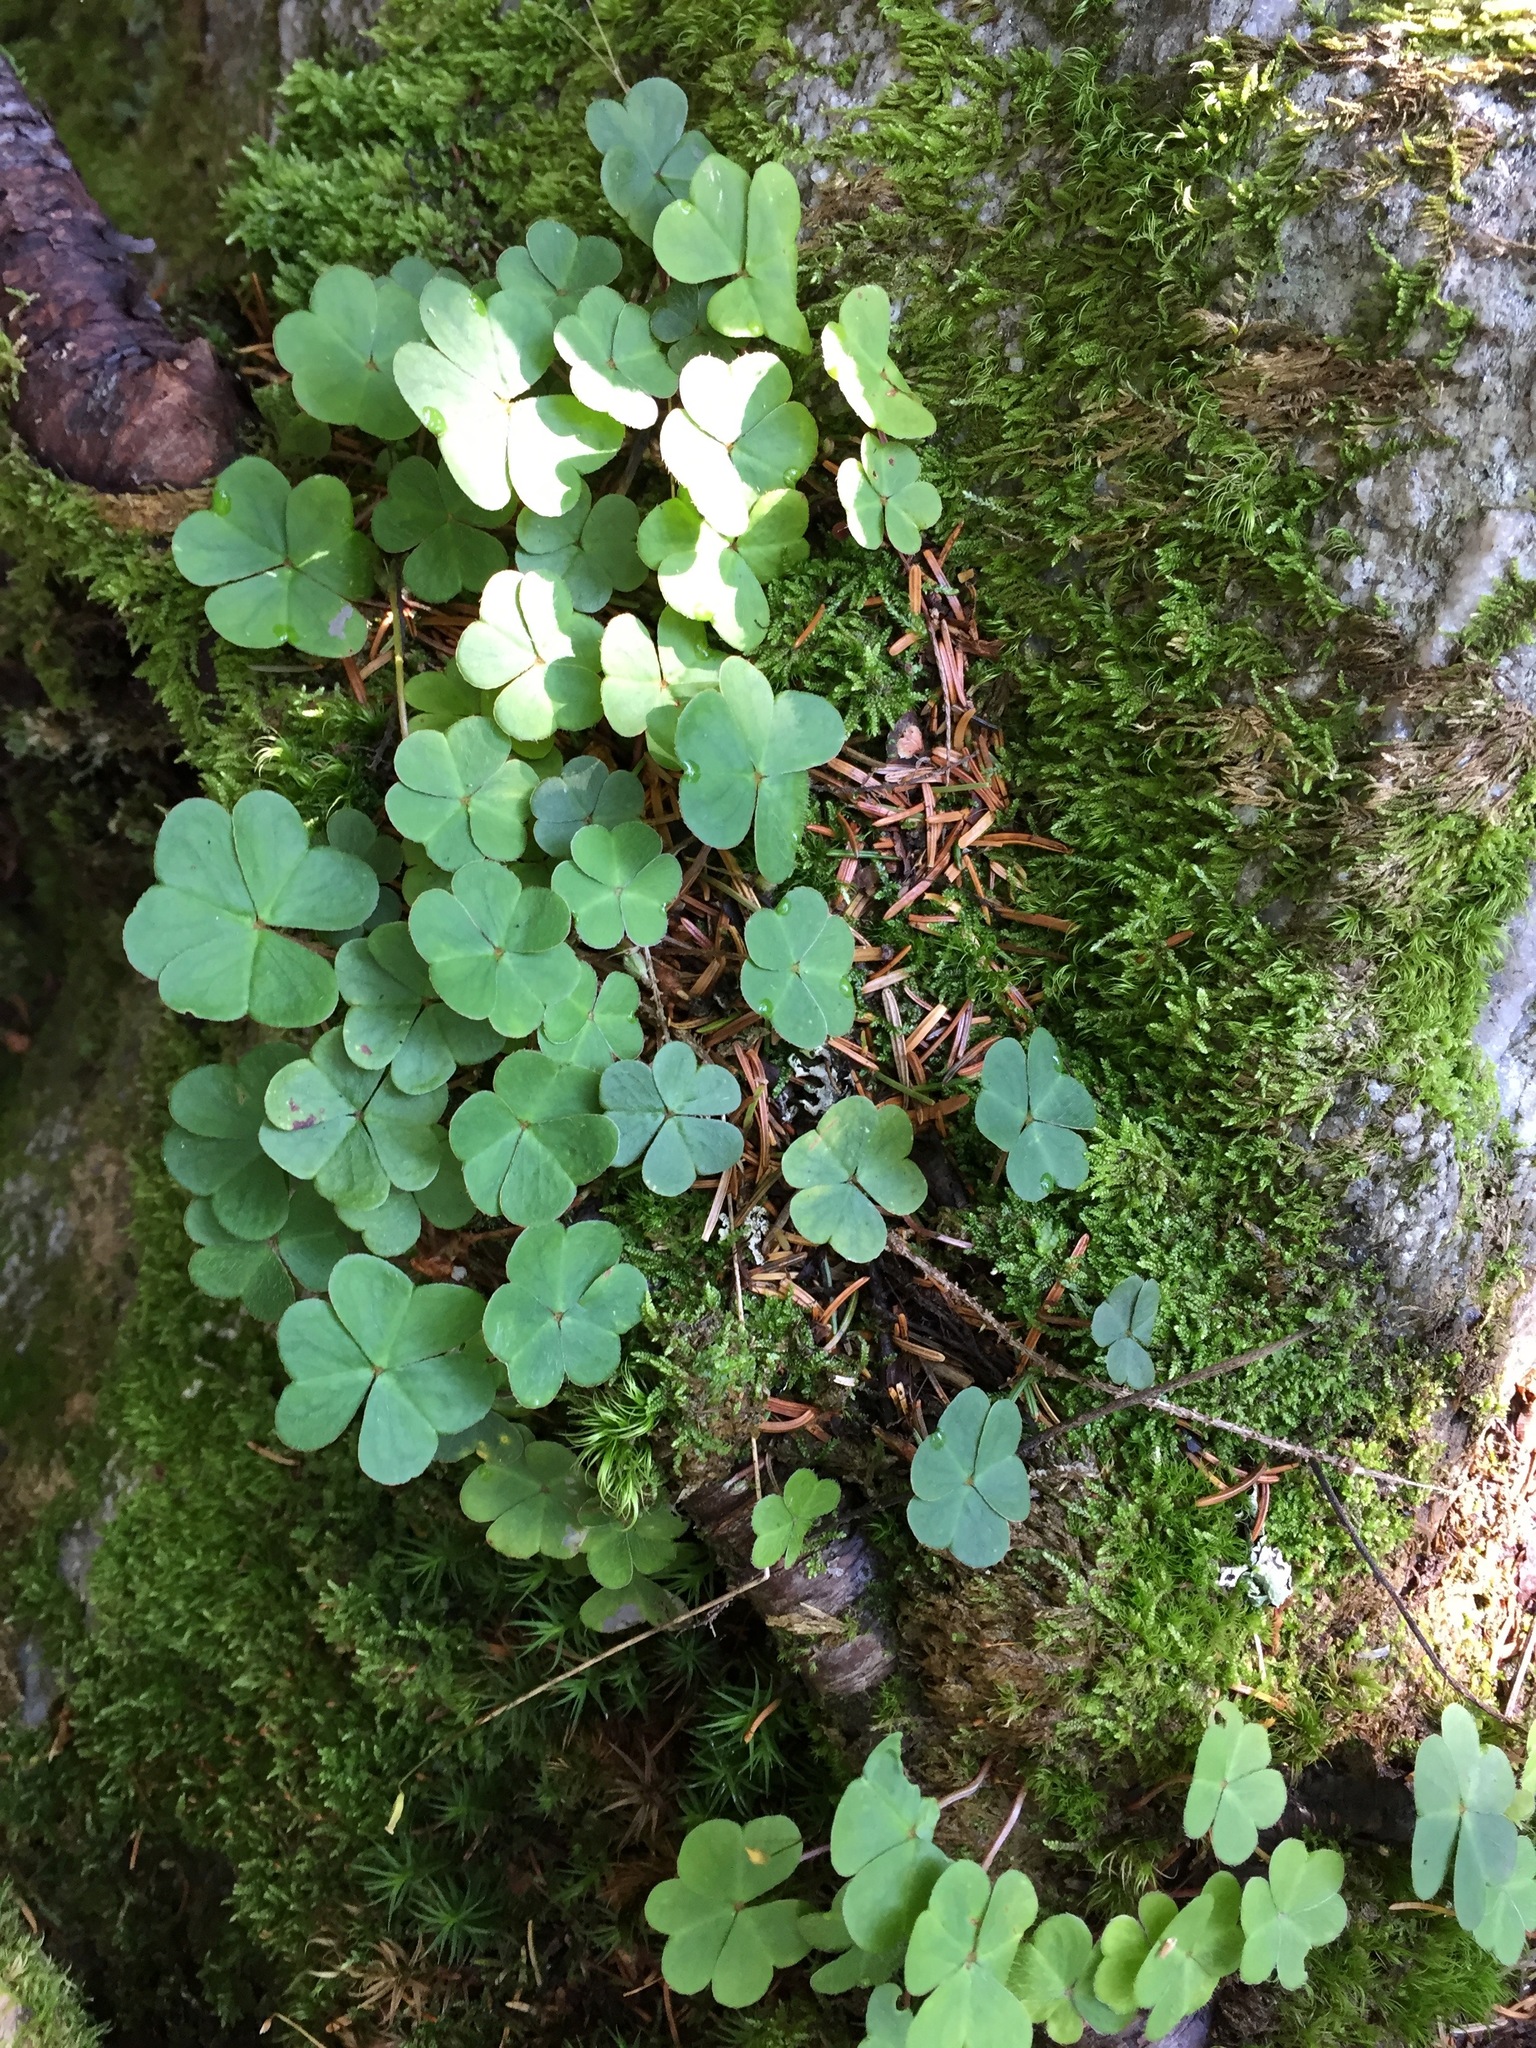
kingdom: Plantae
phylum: Tracheophyta
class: Magnoliopsida
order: Oxalidales
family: Oxalidaceae
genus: Oxalis
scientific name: Oxalis montana
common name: American wood-sorrel
